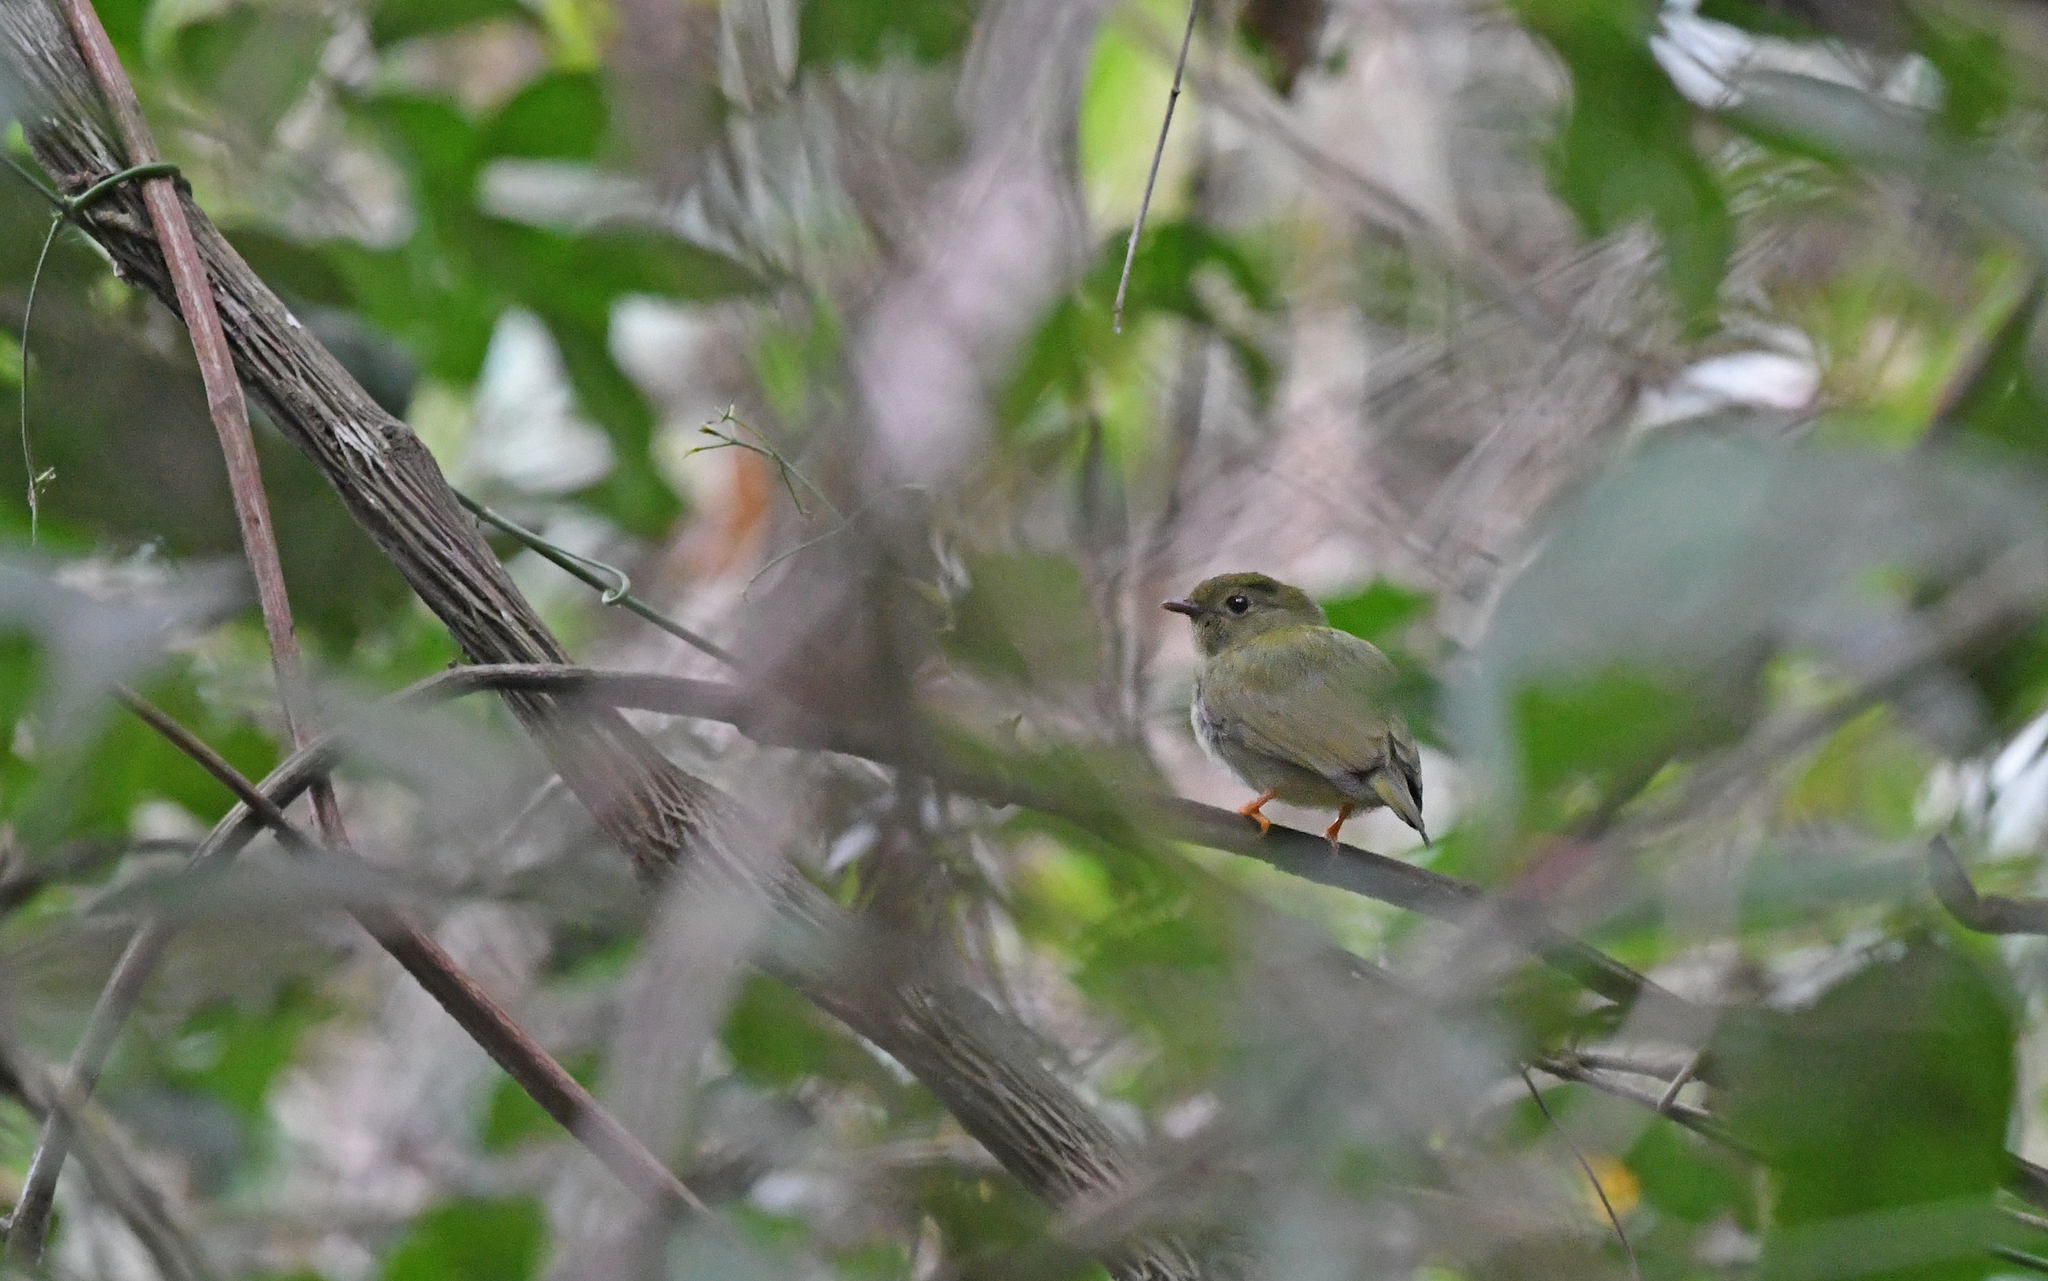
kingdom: Animalia
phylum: Chordata
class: Aves
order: Passeriformes
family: Pipridae
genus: Chiroxiphia
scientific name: Chiroxiphia lanceolata
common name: Lance-tailed manakin
